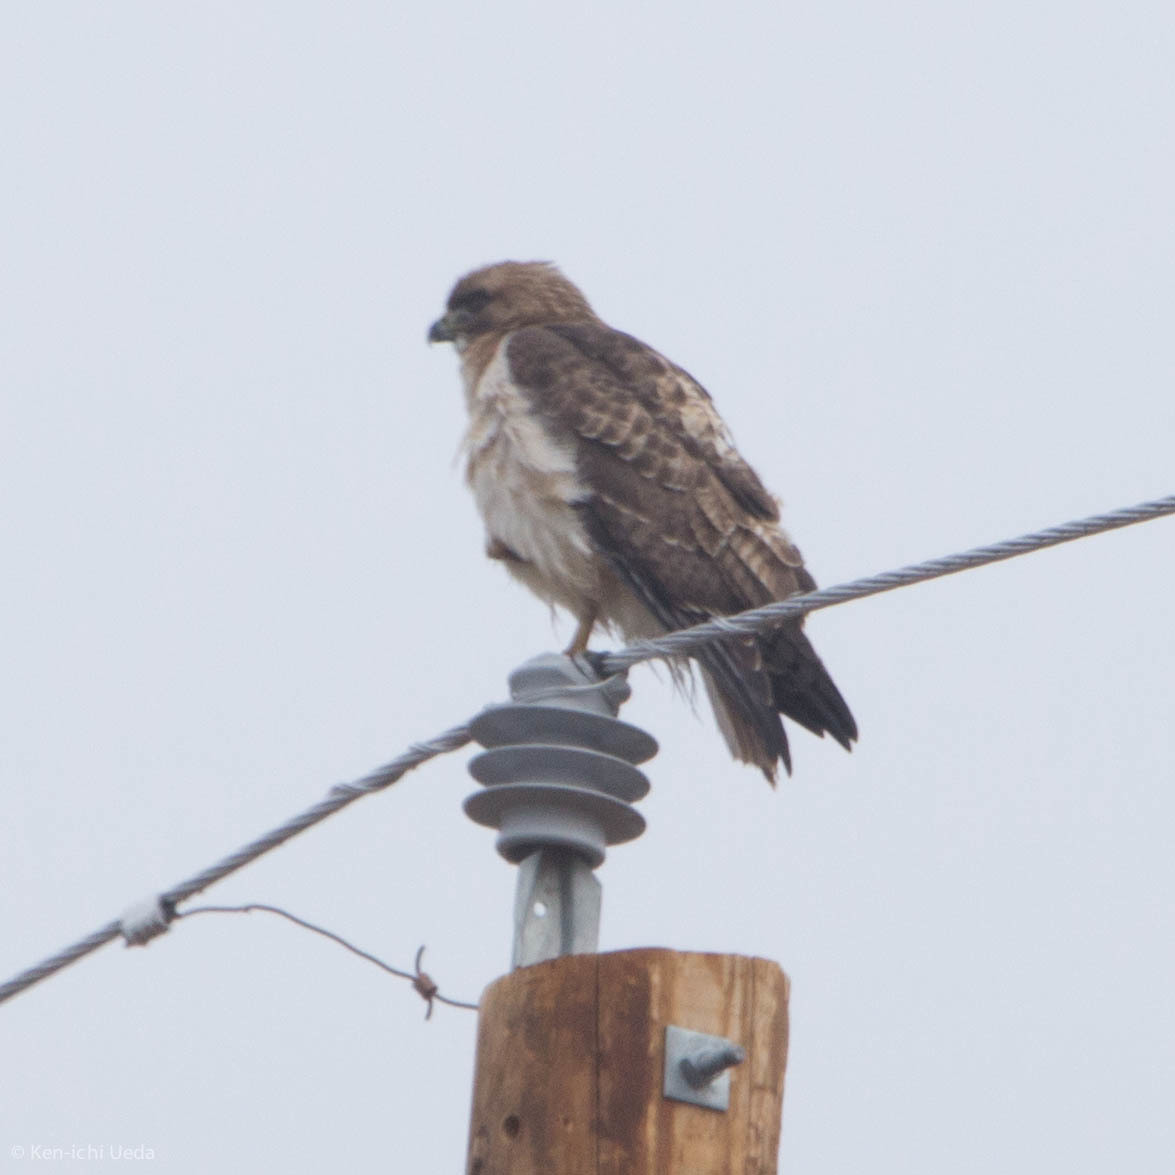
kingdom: Animalia
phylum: Chordata
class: Aves
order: Accipitriformes
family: Accipitridae
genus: Buteo
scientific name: Buteo jamaicensis
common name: Red-tailed hawk
